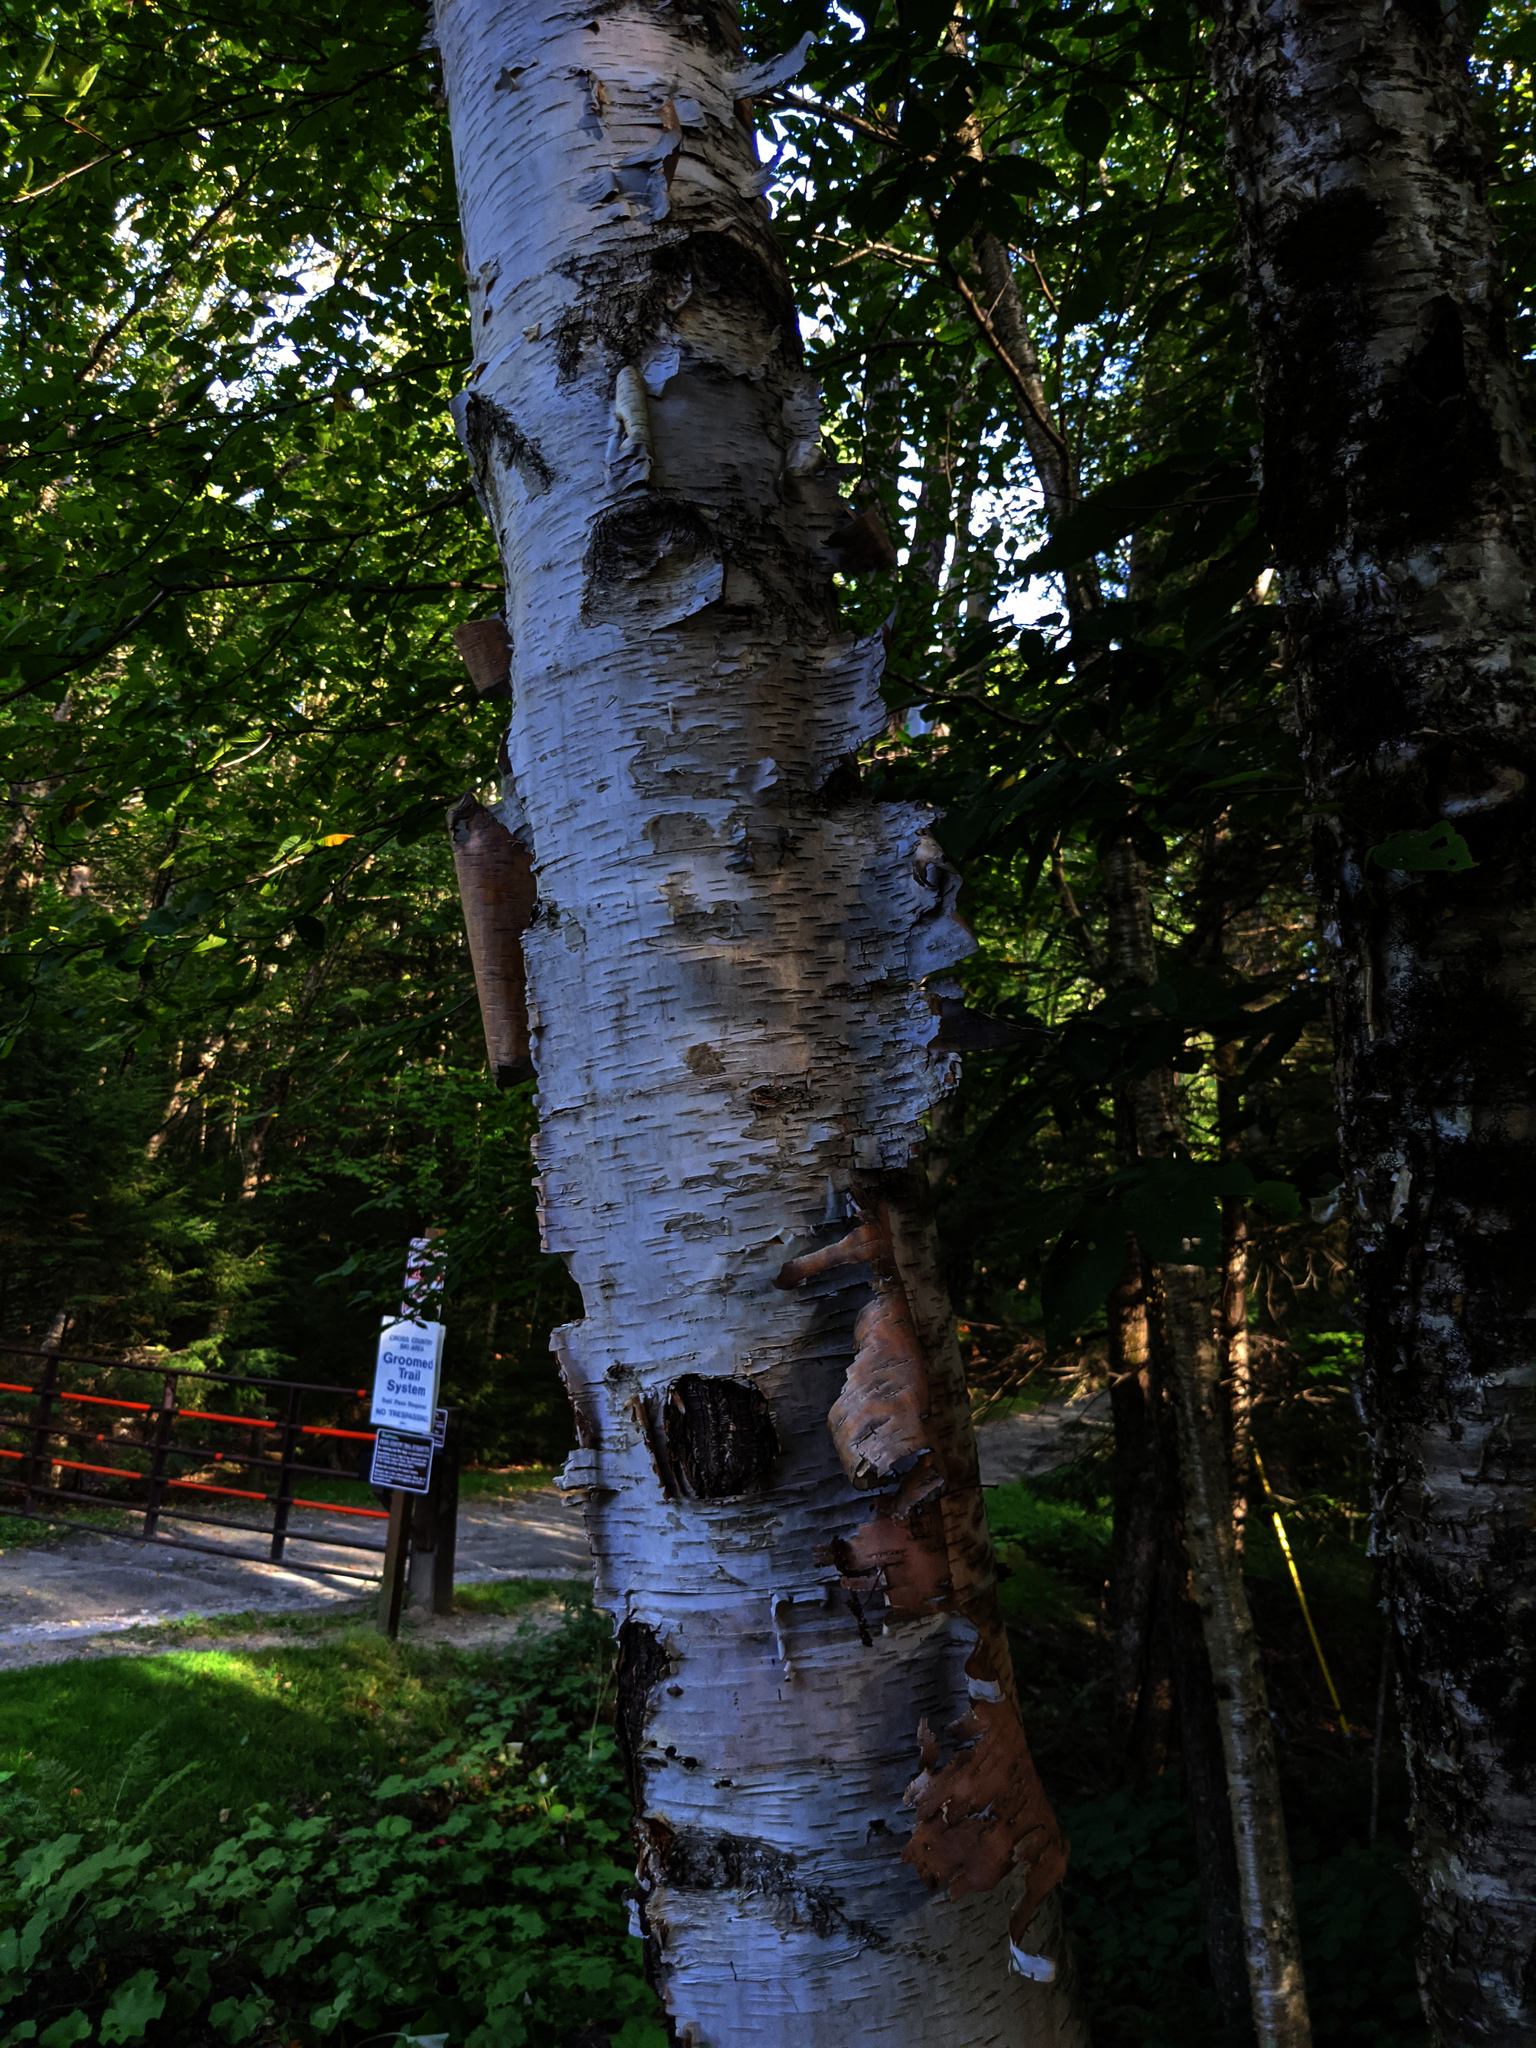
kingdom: Plantae
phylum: Tracheophyta
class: Magnoliopsida
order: Fagales
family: Betulaceae
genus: Betula
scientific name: Betula papyrifera
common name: Paper birch
